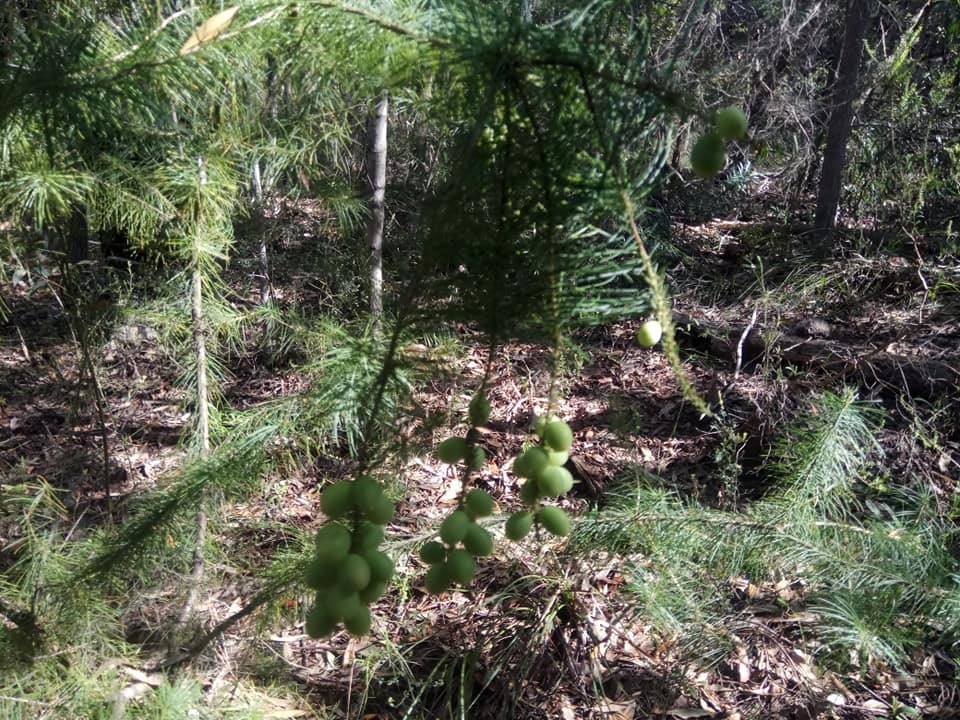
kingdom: Plantae
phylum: Tracheophyta
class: Magnoliopsida
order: Proteales
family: Proteaceae
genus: Persoonia
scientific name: Persoonia pinifolia
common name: Pine-leaf geebung
